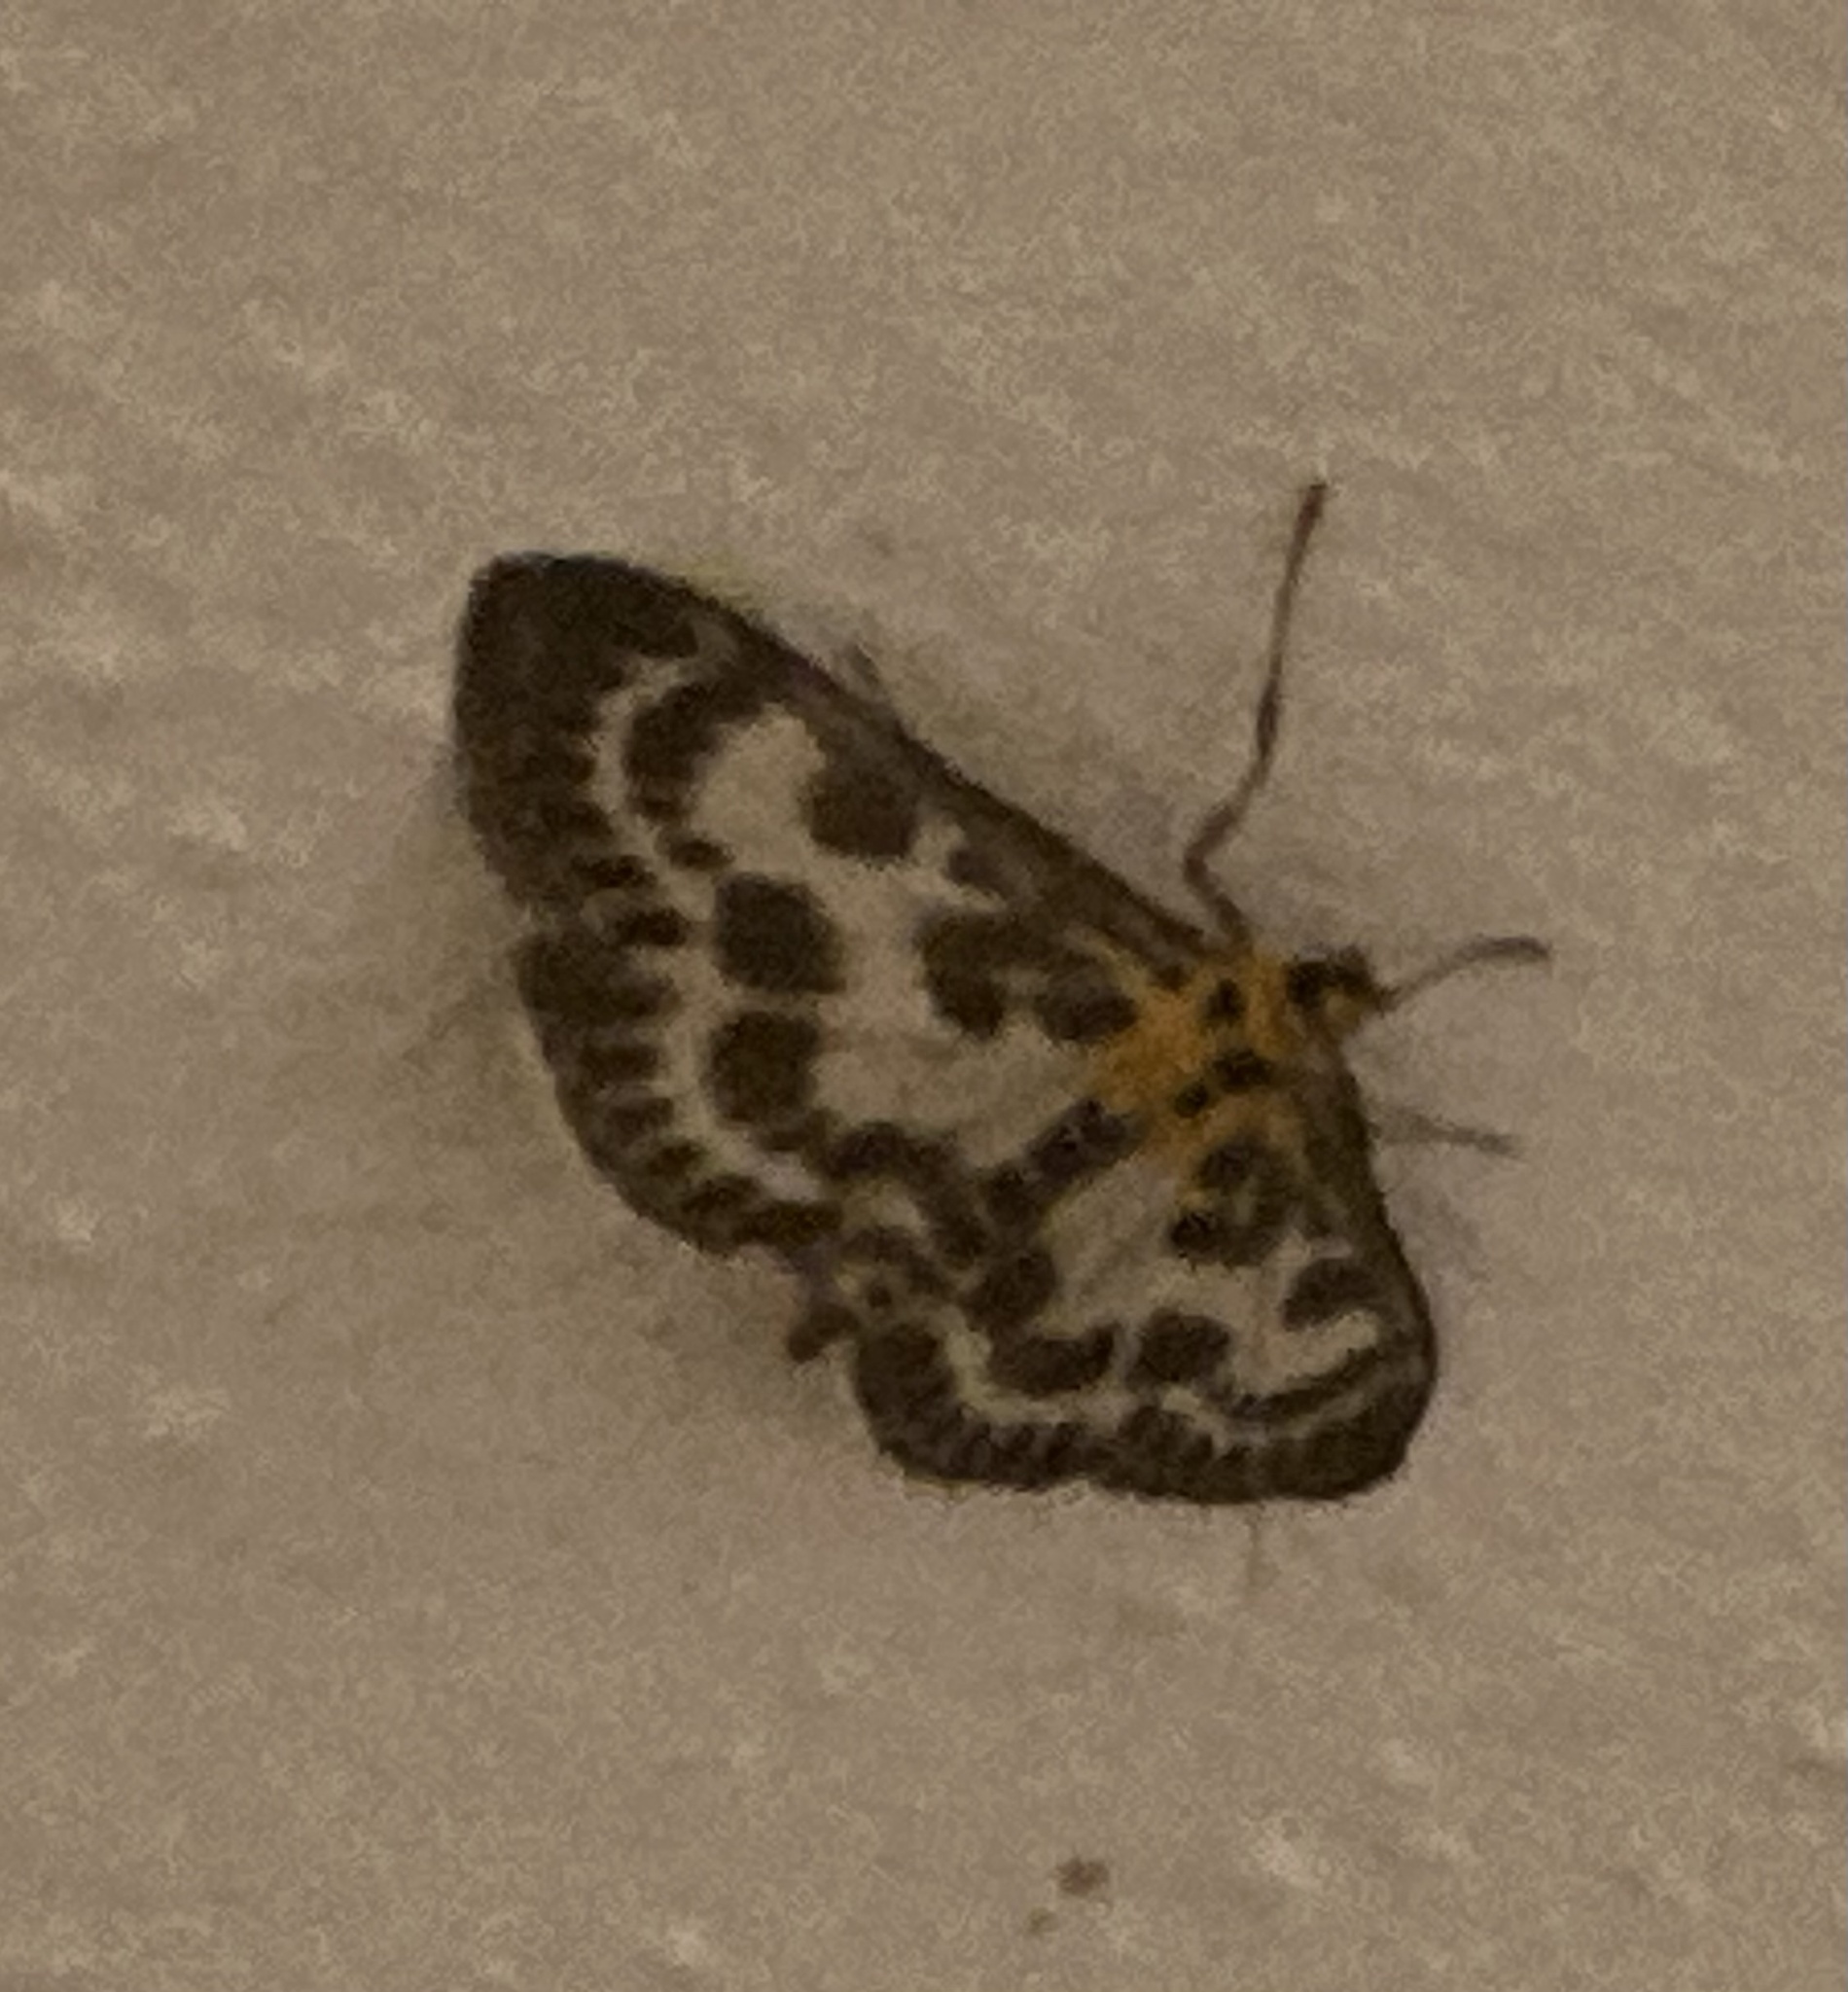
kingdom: Animalia
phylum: Arthropoda
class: Insecta
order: Lepidoptera
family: Crambidae
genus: Anania
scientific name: Anania hortulata
